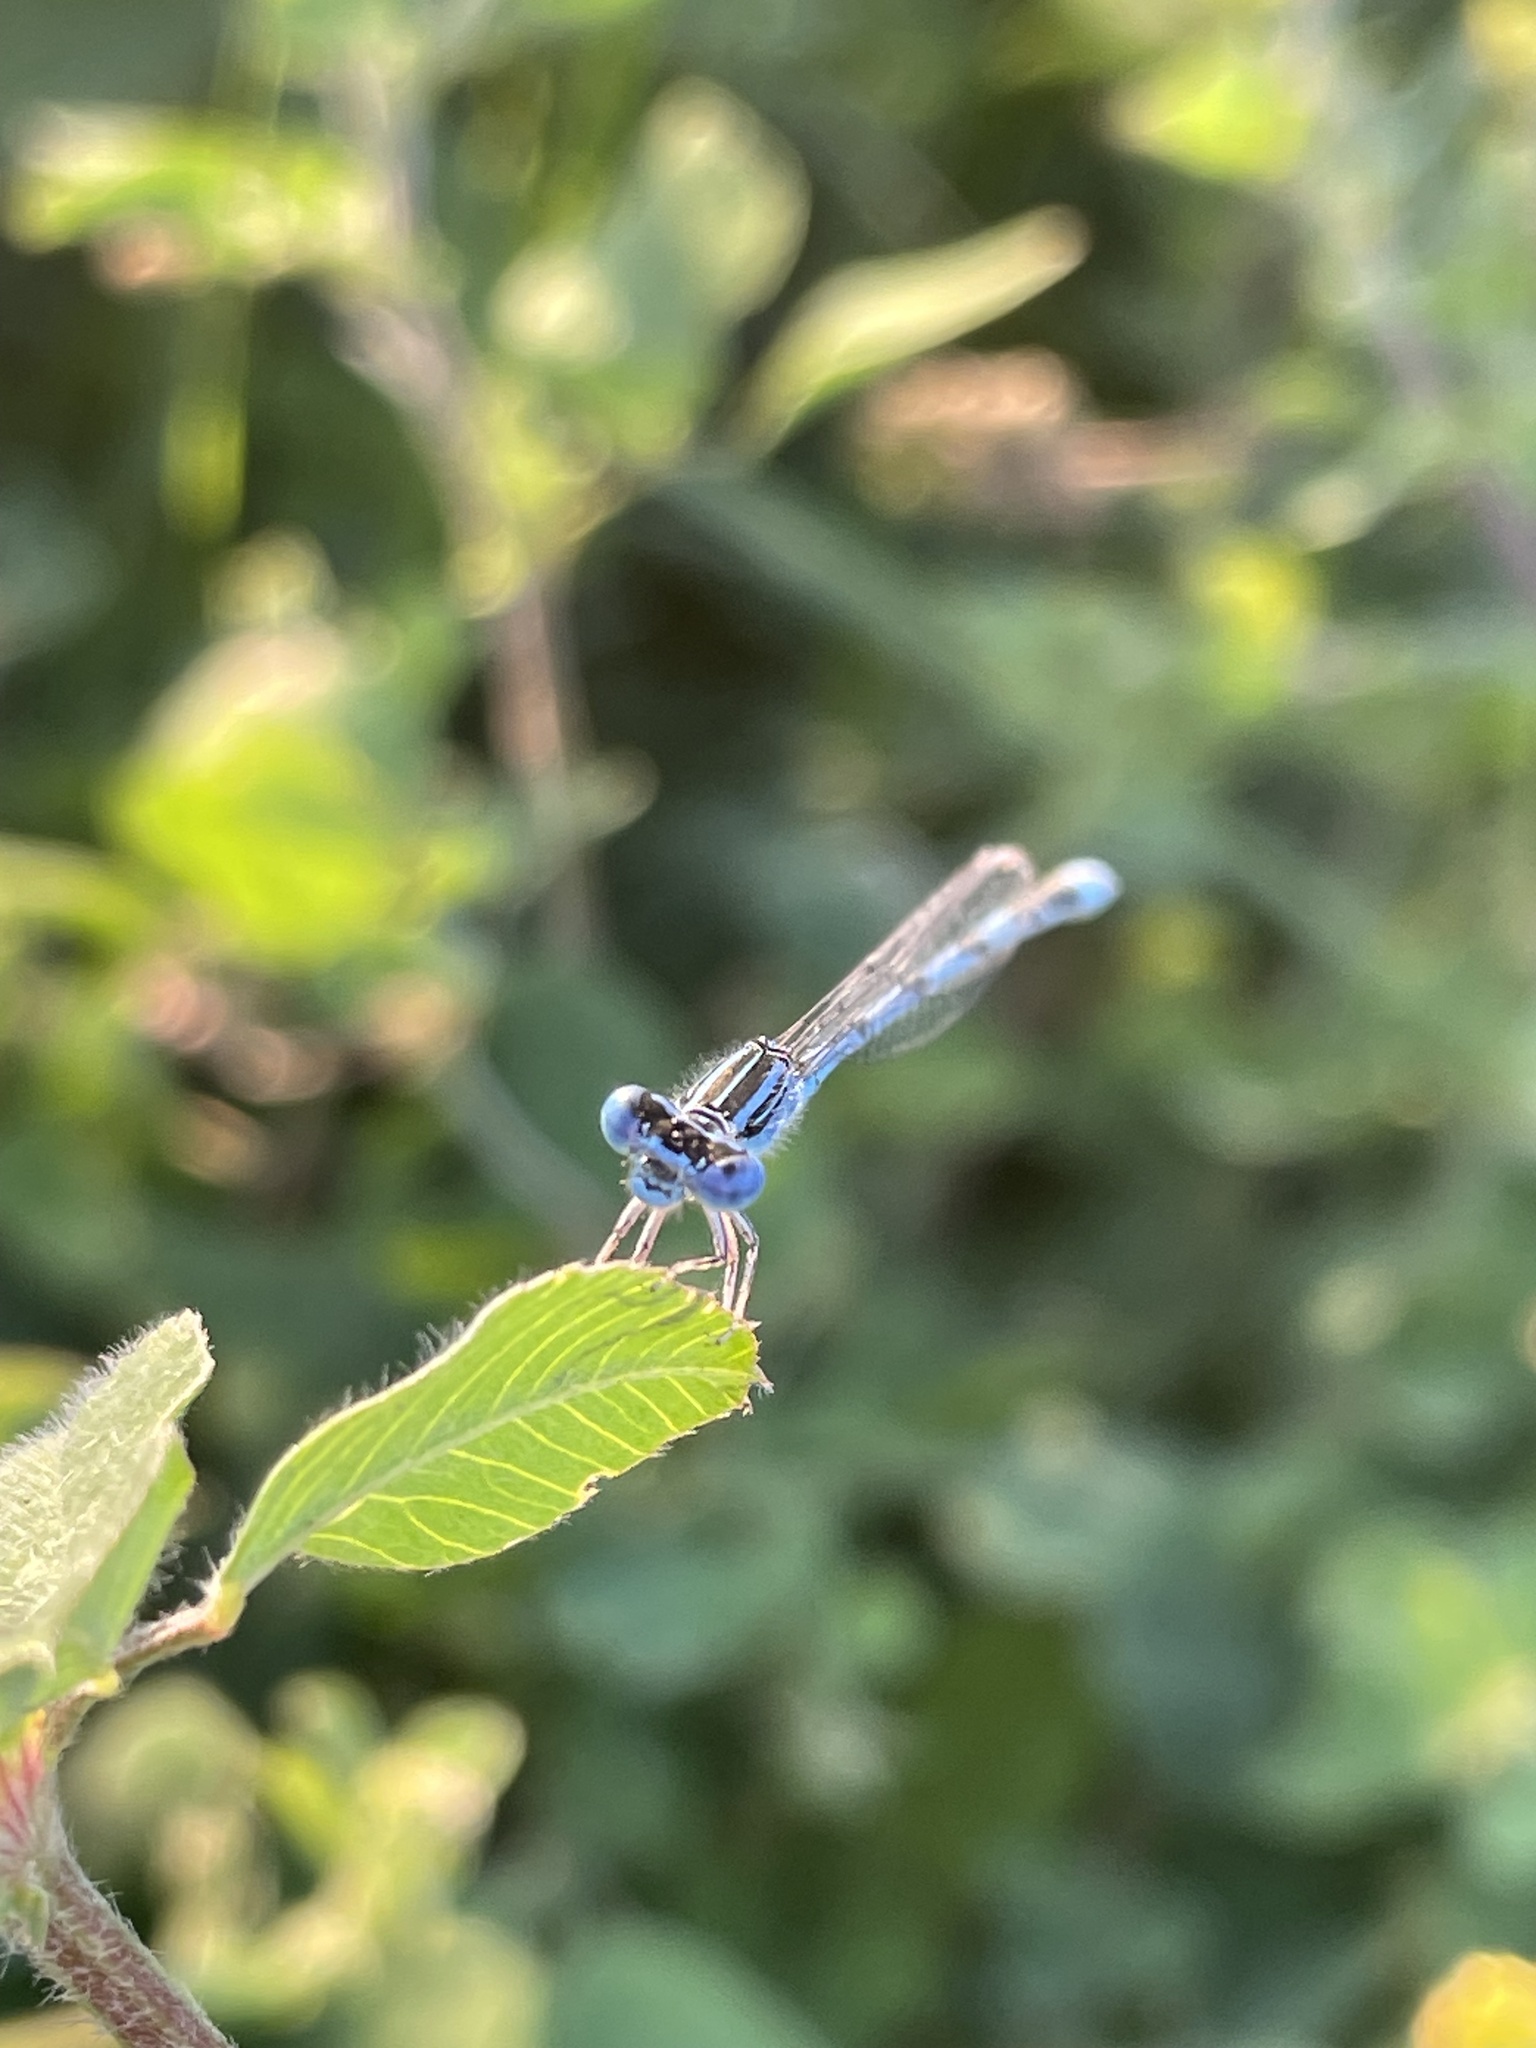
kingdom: Animalia
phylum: Arthropoda
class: Insecta
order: Odonata
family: Coenagrionidae
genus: Enallagma
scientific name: Enallagma basidens
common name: Double-striped bluet
